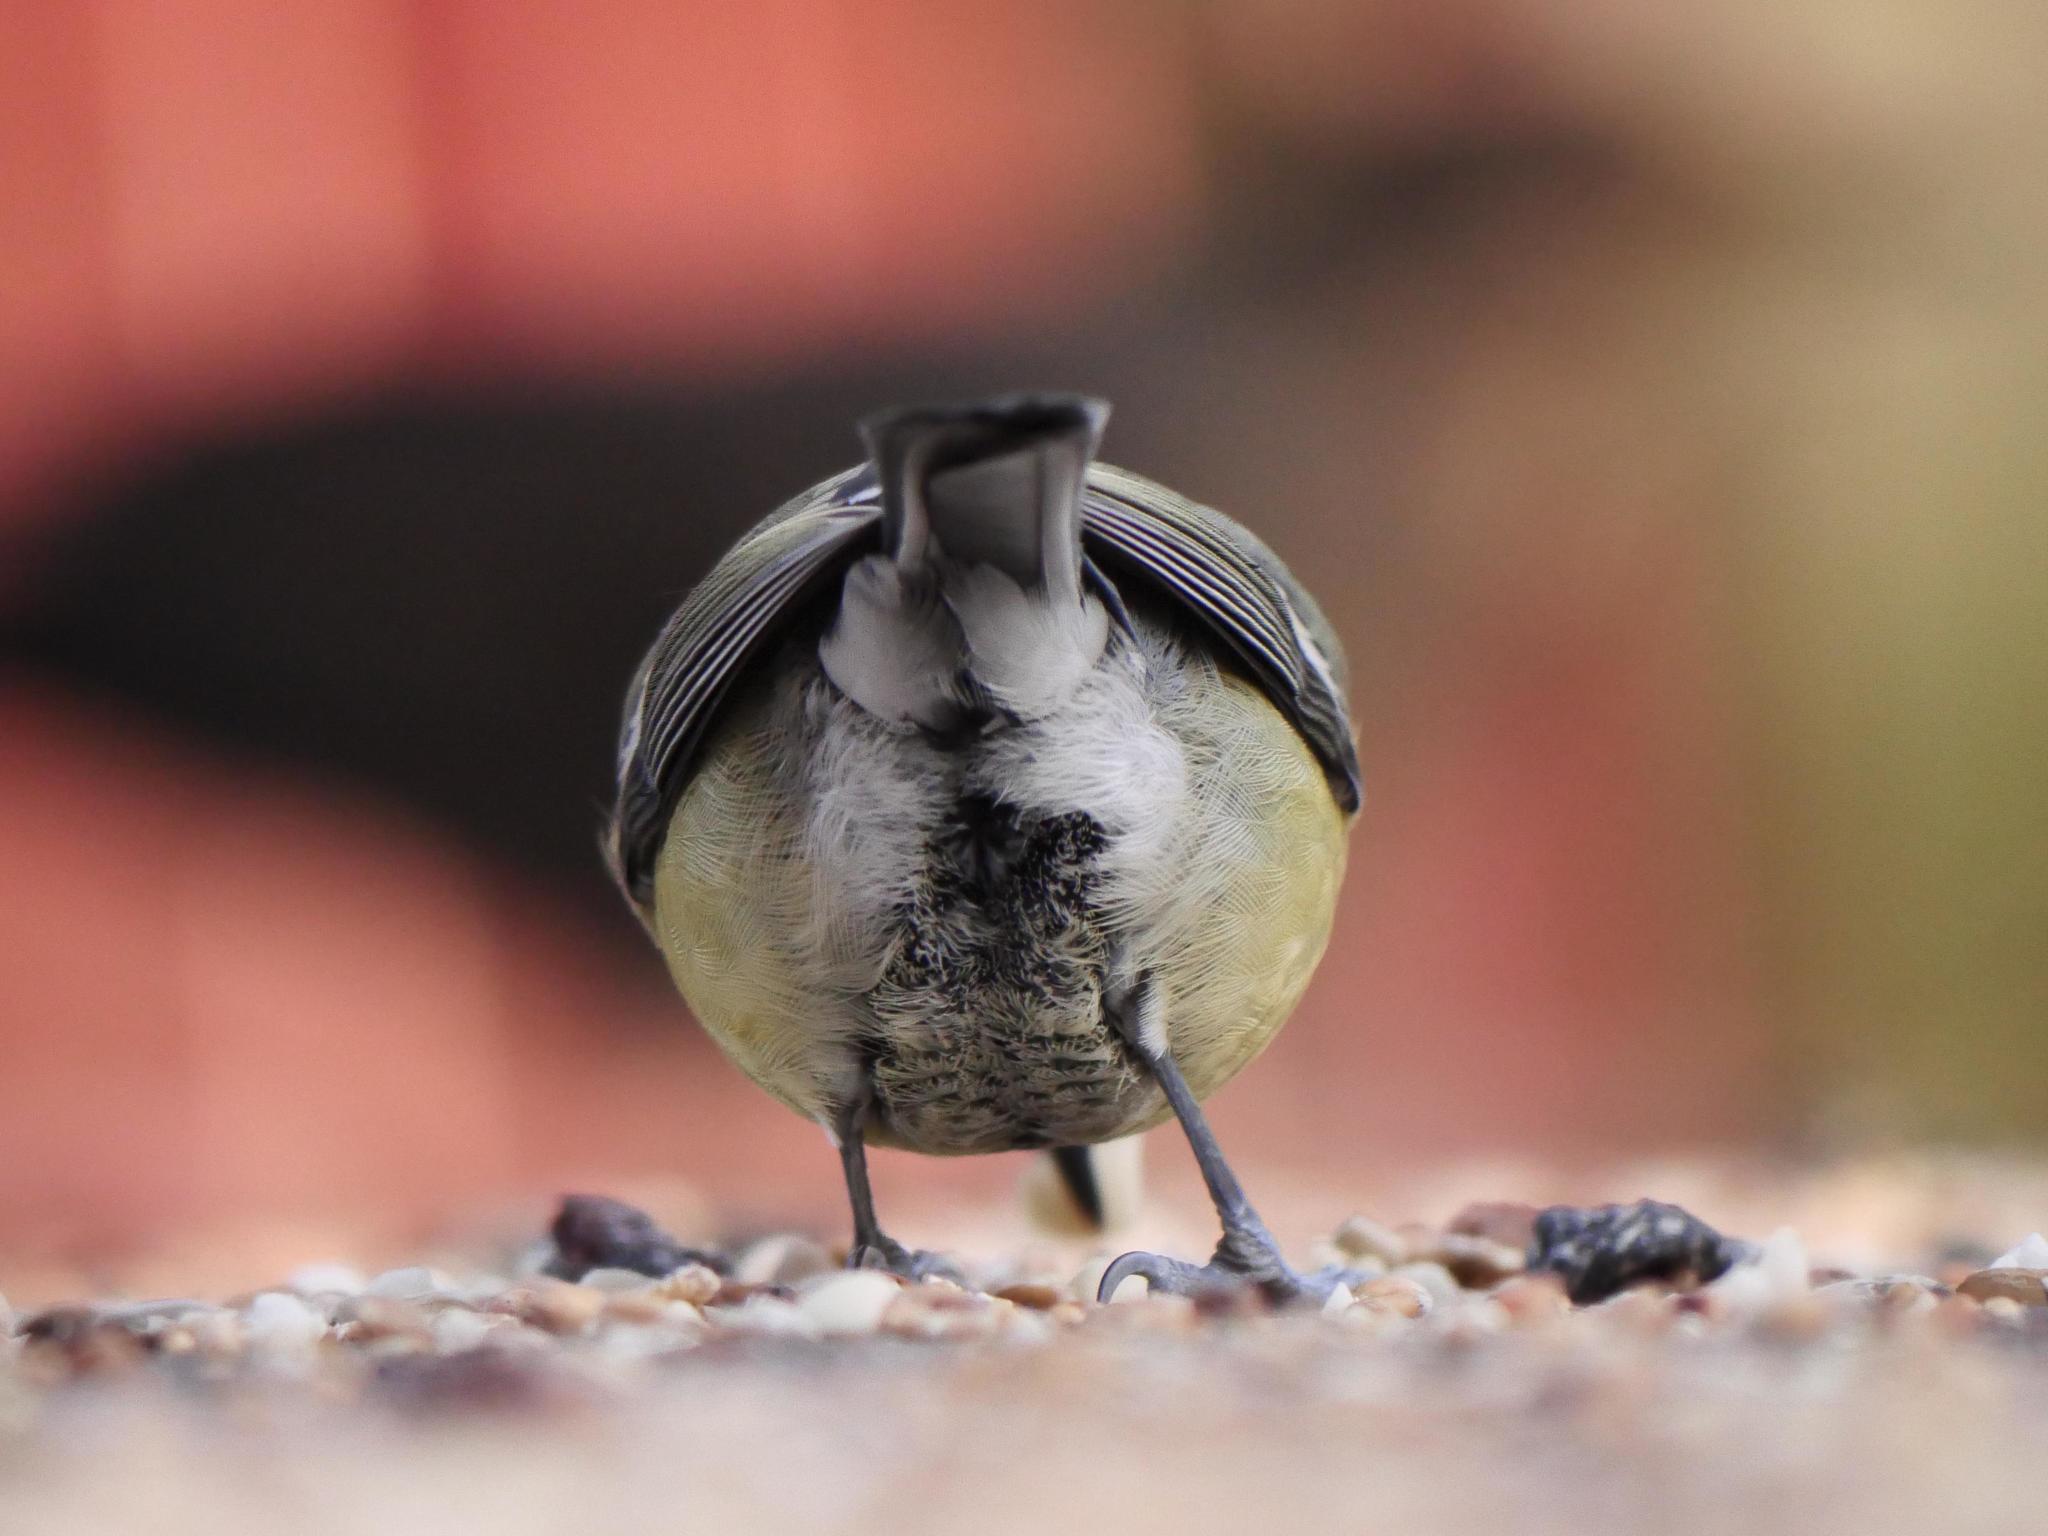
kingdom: Animalia
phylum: Chordata
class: Aves
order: Passeriformes
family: Paridae
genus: Parus
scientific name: Parus major
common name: Great tit
